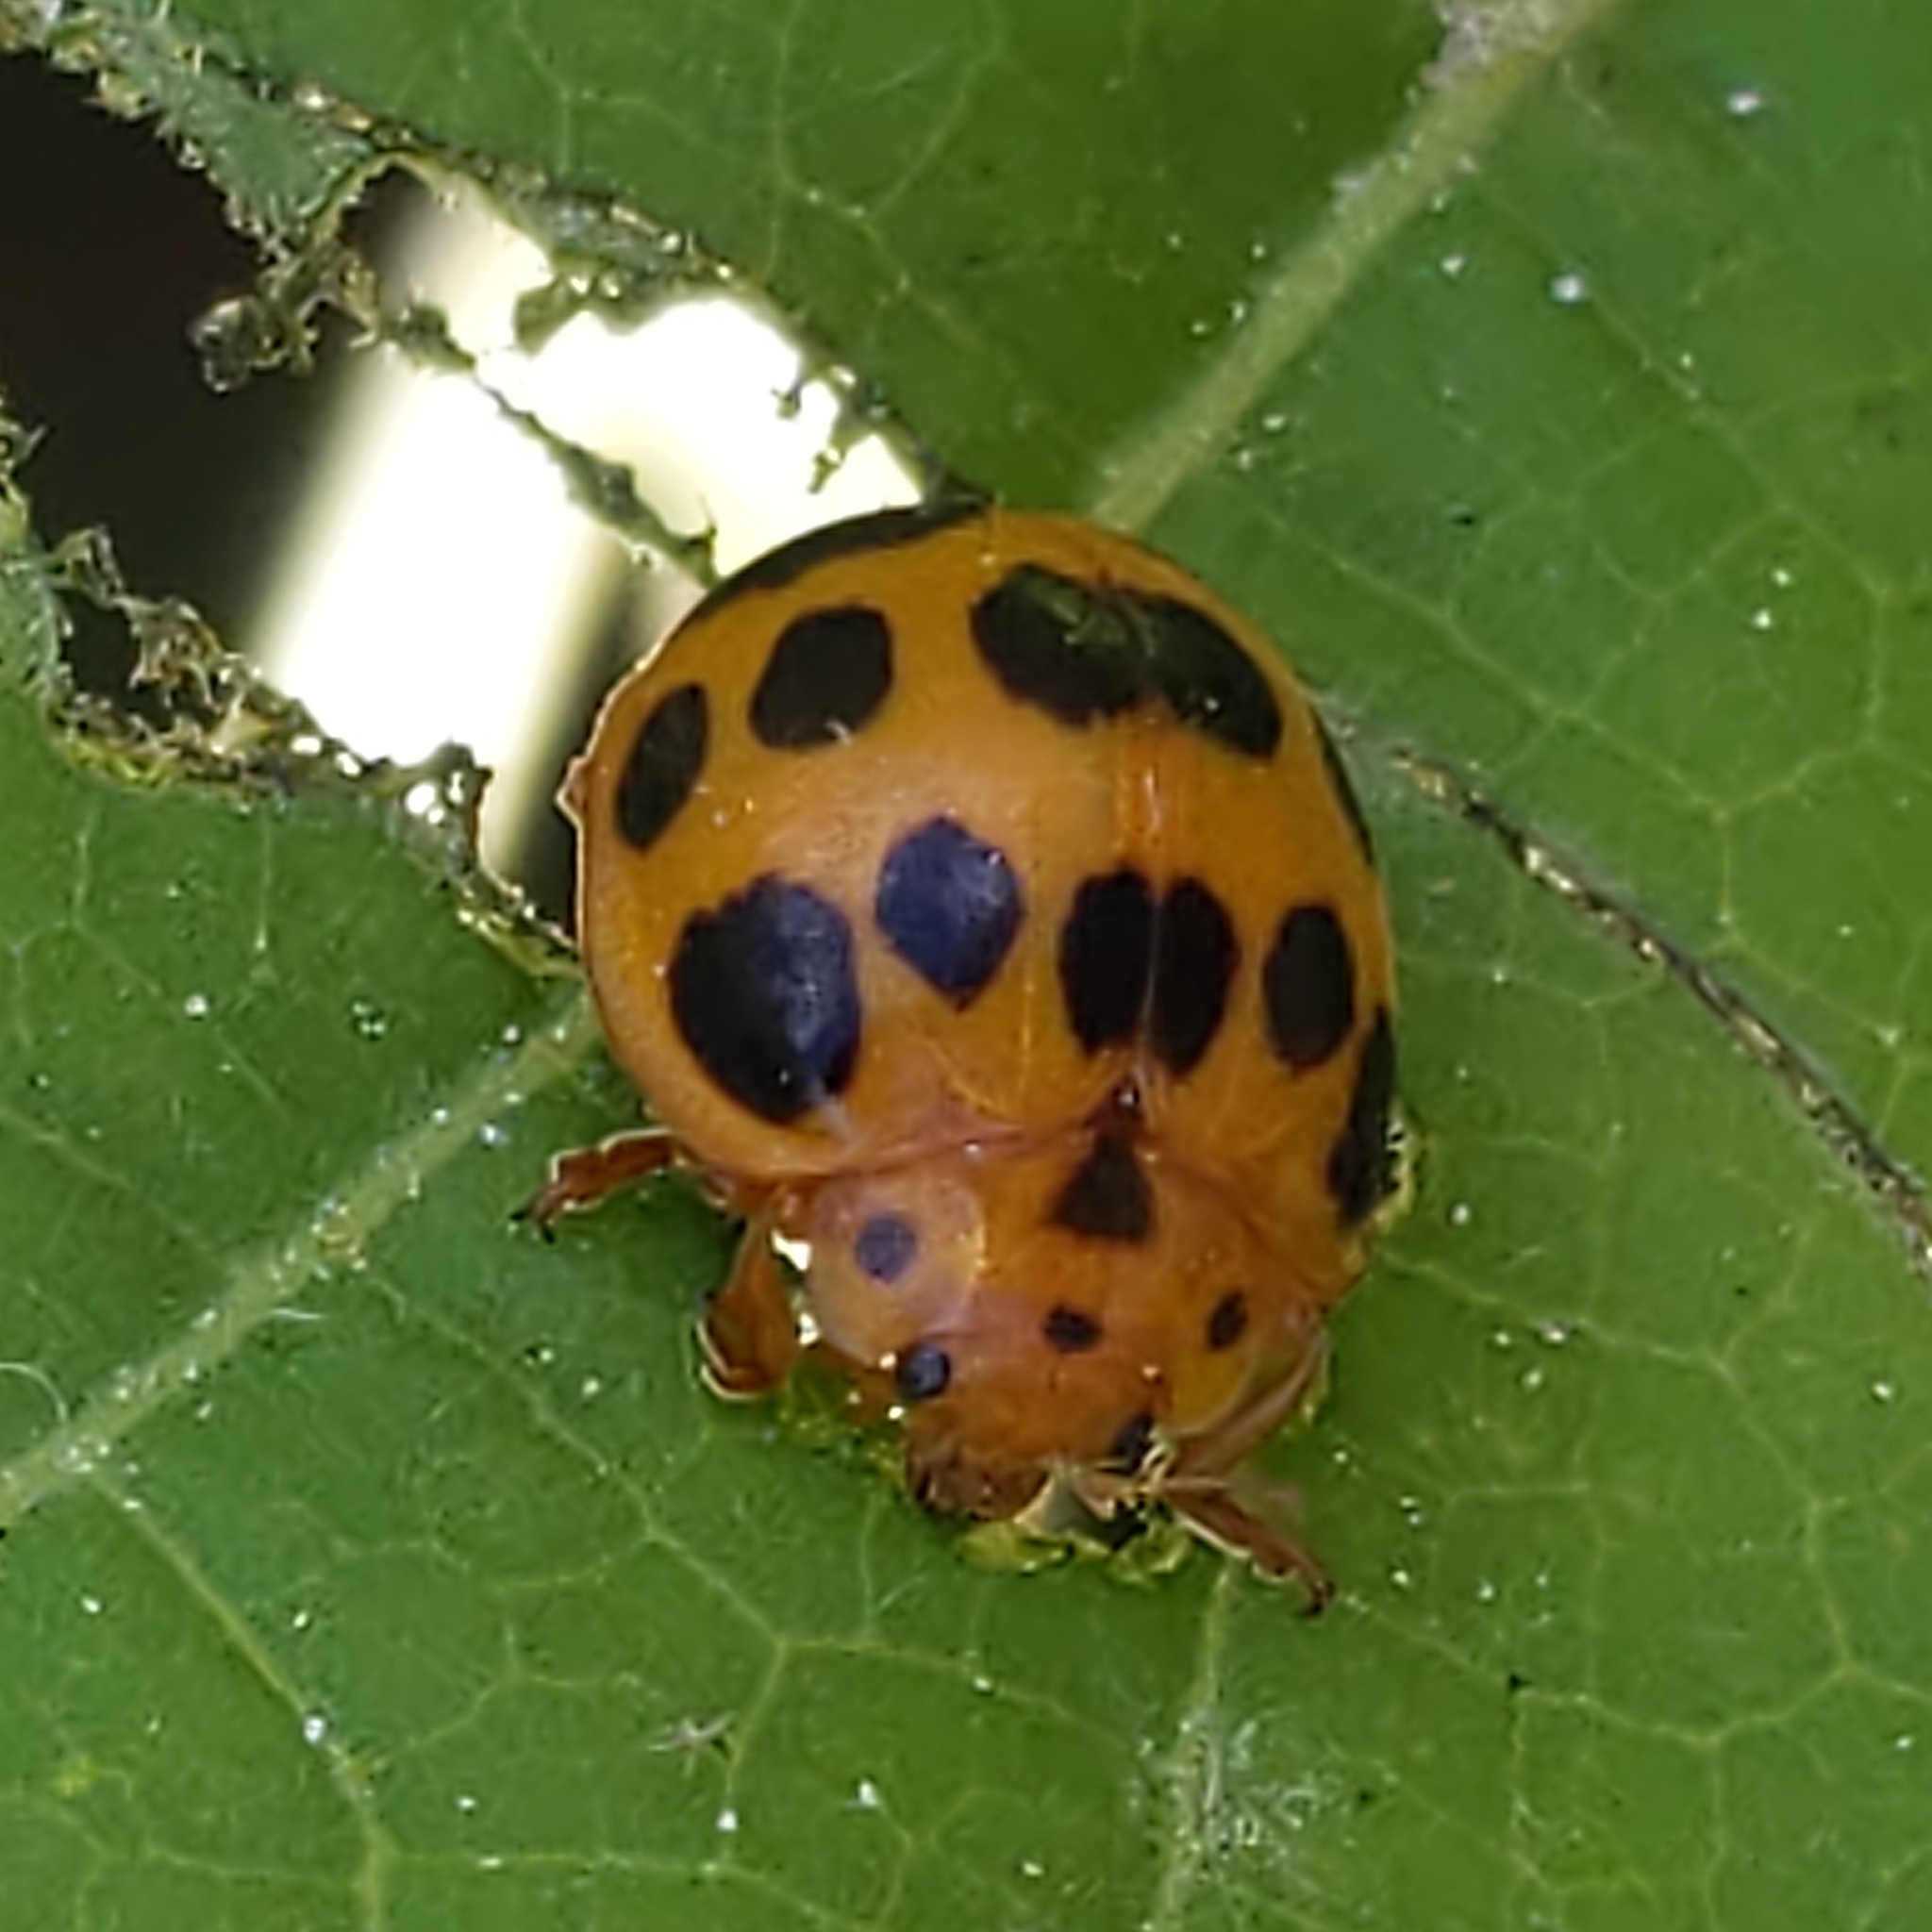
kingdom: Animalia
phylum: Arthropoda
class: Insecta
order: Coleoptera
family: Coccinellidae
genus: Epilachna
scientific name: Epilachna borealis
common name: Squash beetle
